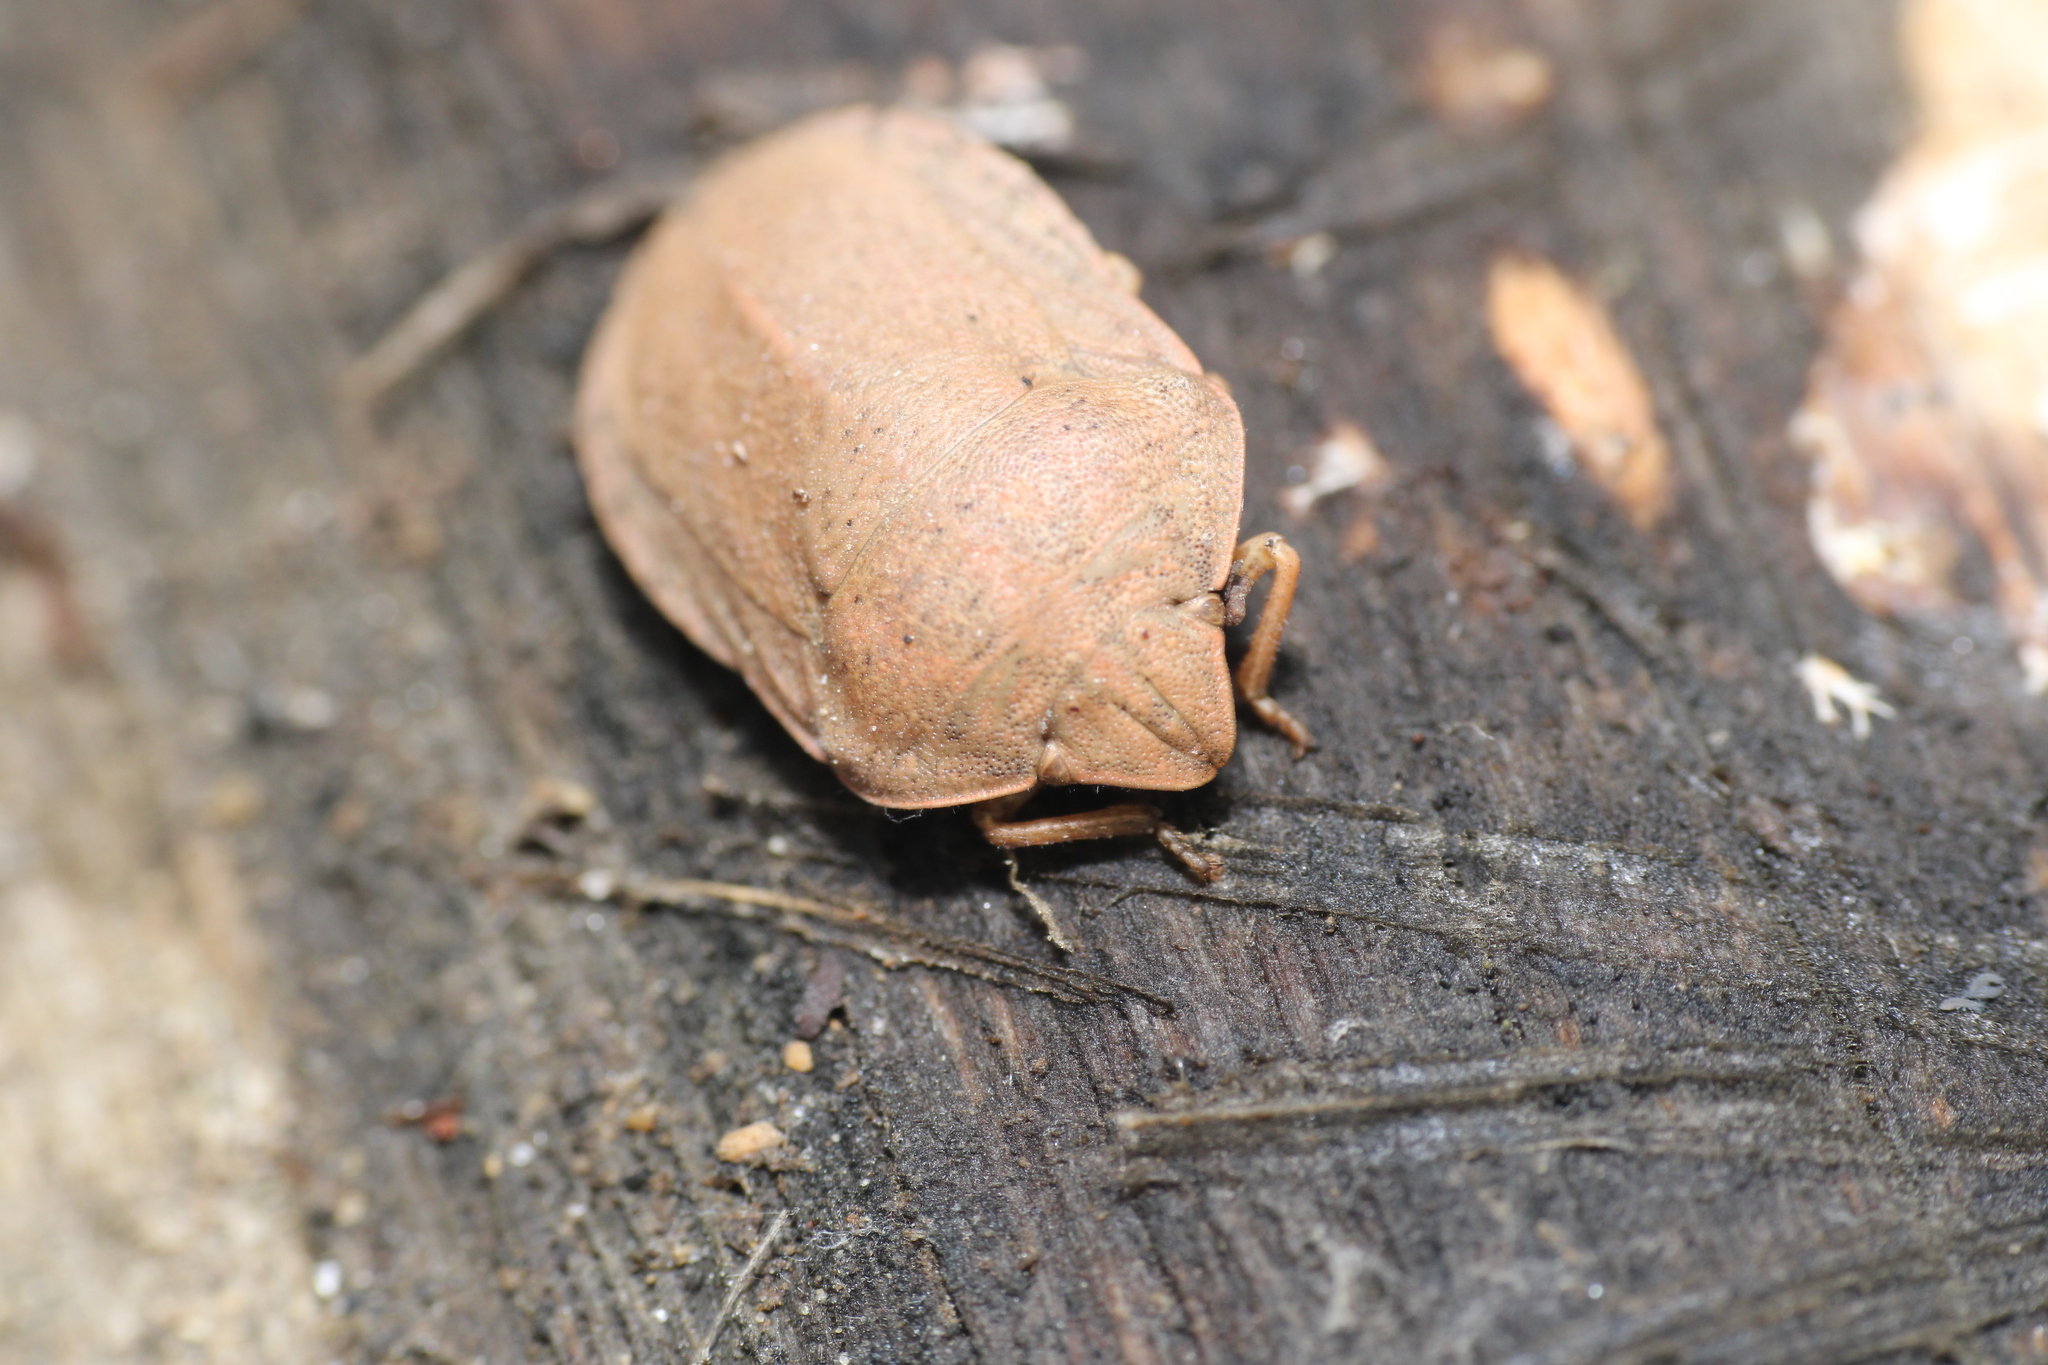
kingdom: Animalia
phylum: Arthropoda
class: Insecta
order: Hemiptera
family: Scutelleridae
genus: Eurygaster
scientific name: Eurygaster austriaca
